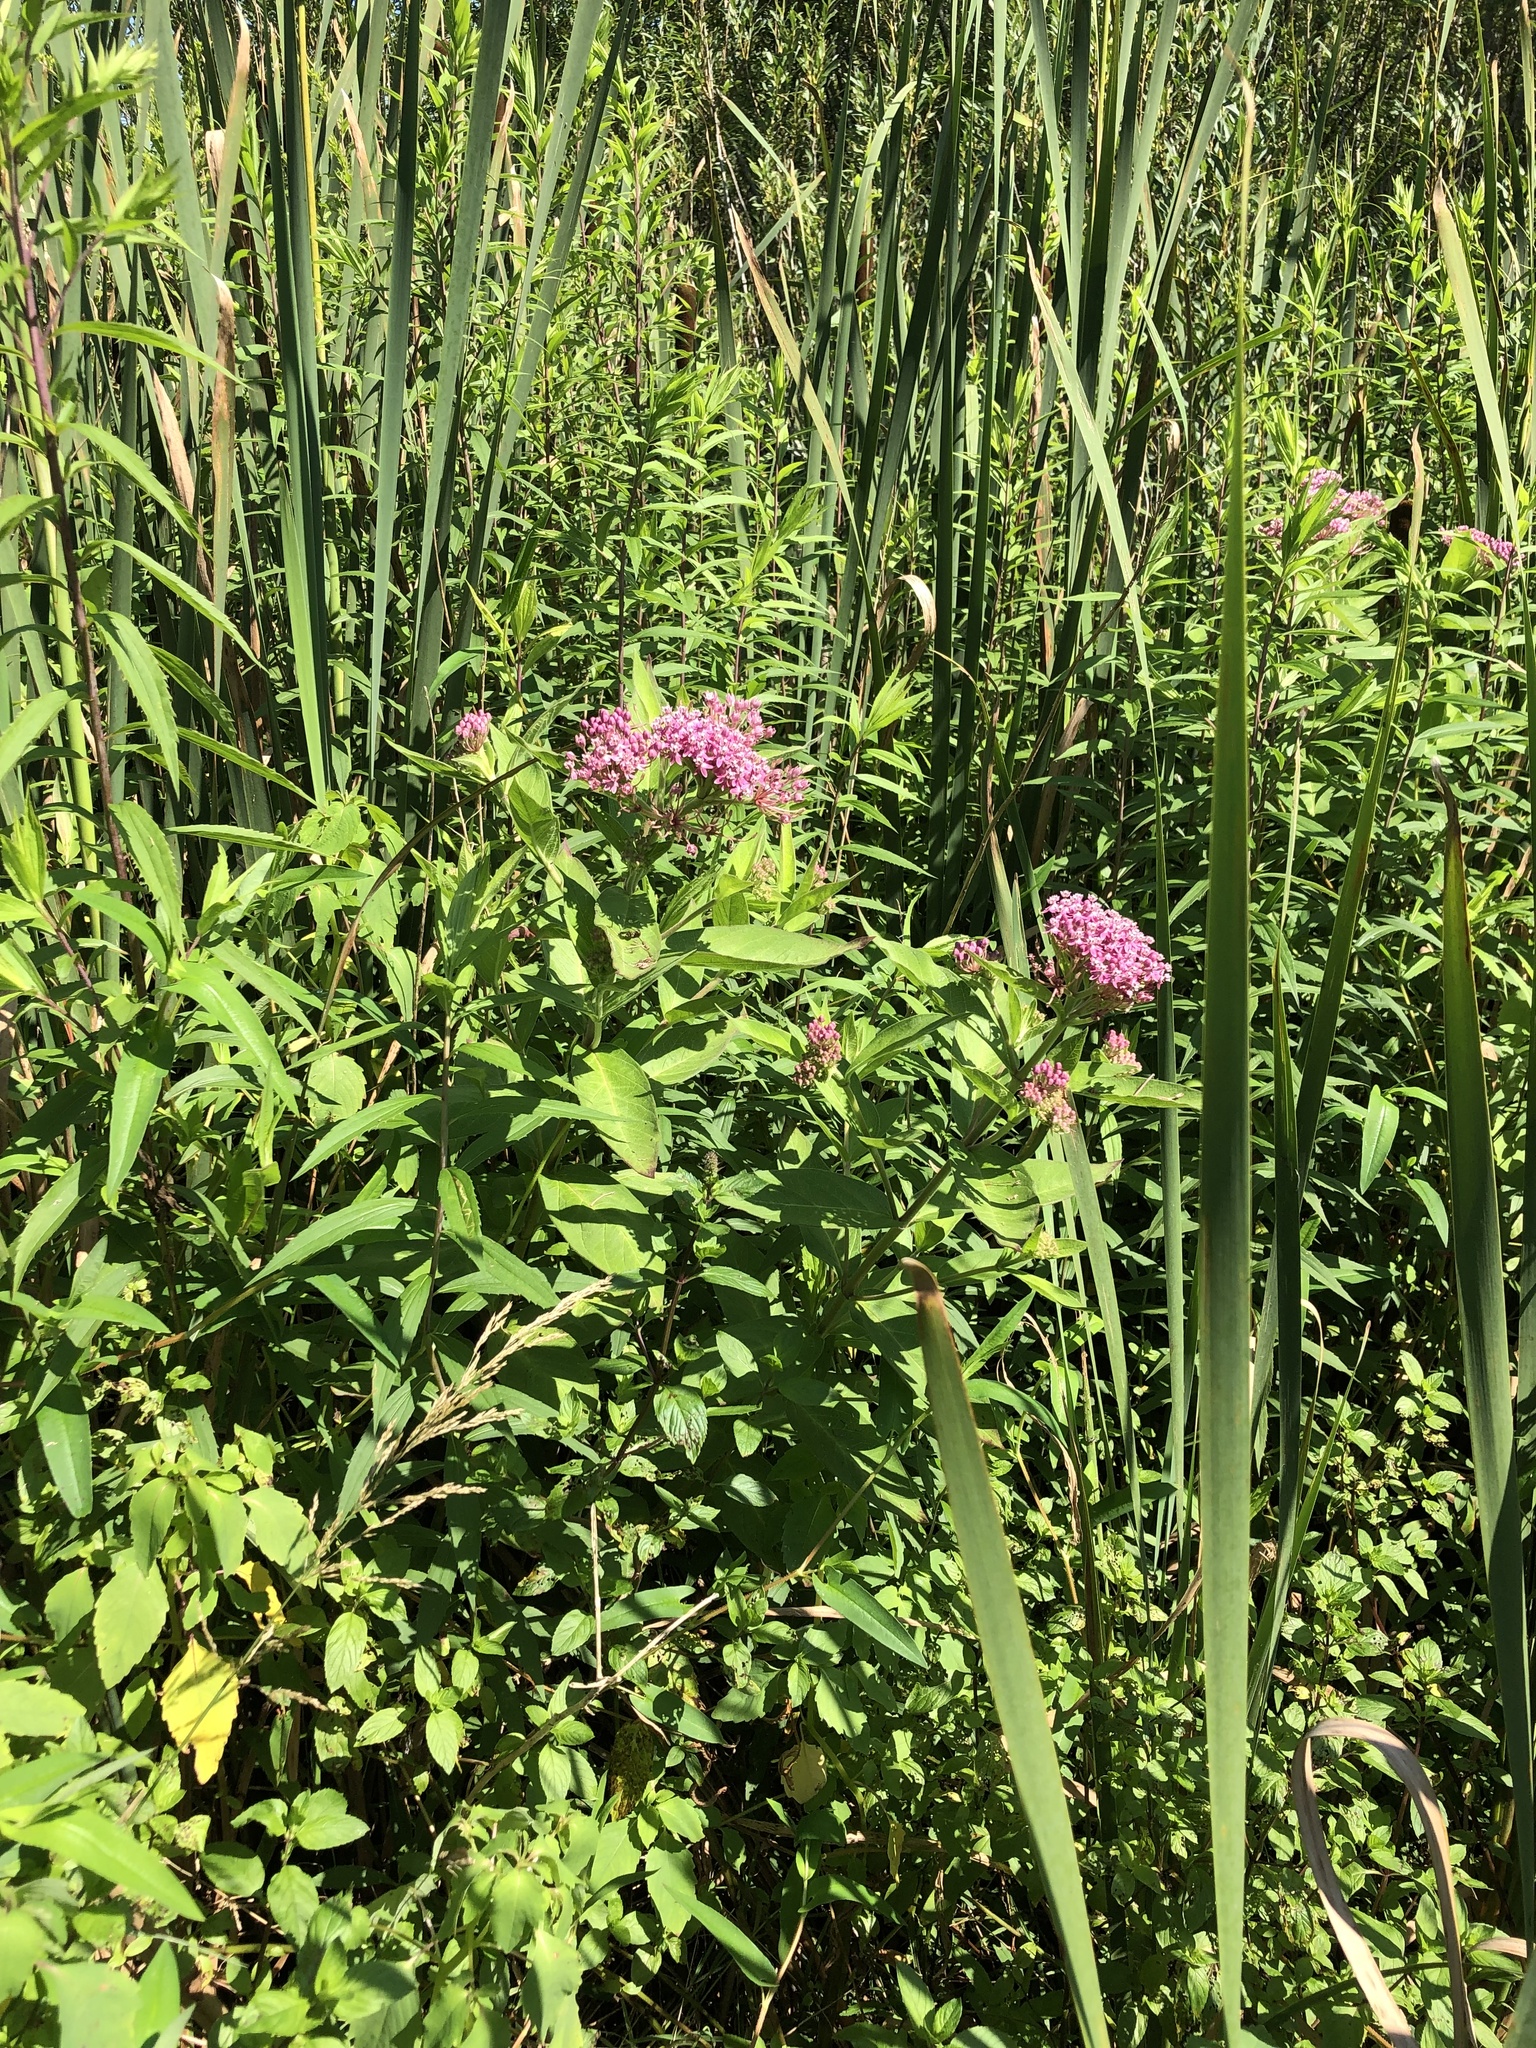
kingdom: Plantae
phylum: Tracheophyta
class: Magnoliopsida
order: Gentianales
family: Apocynaceae
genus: Asclepias
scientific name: Asclepias incarnata
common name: Swamp milkweed
